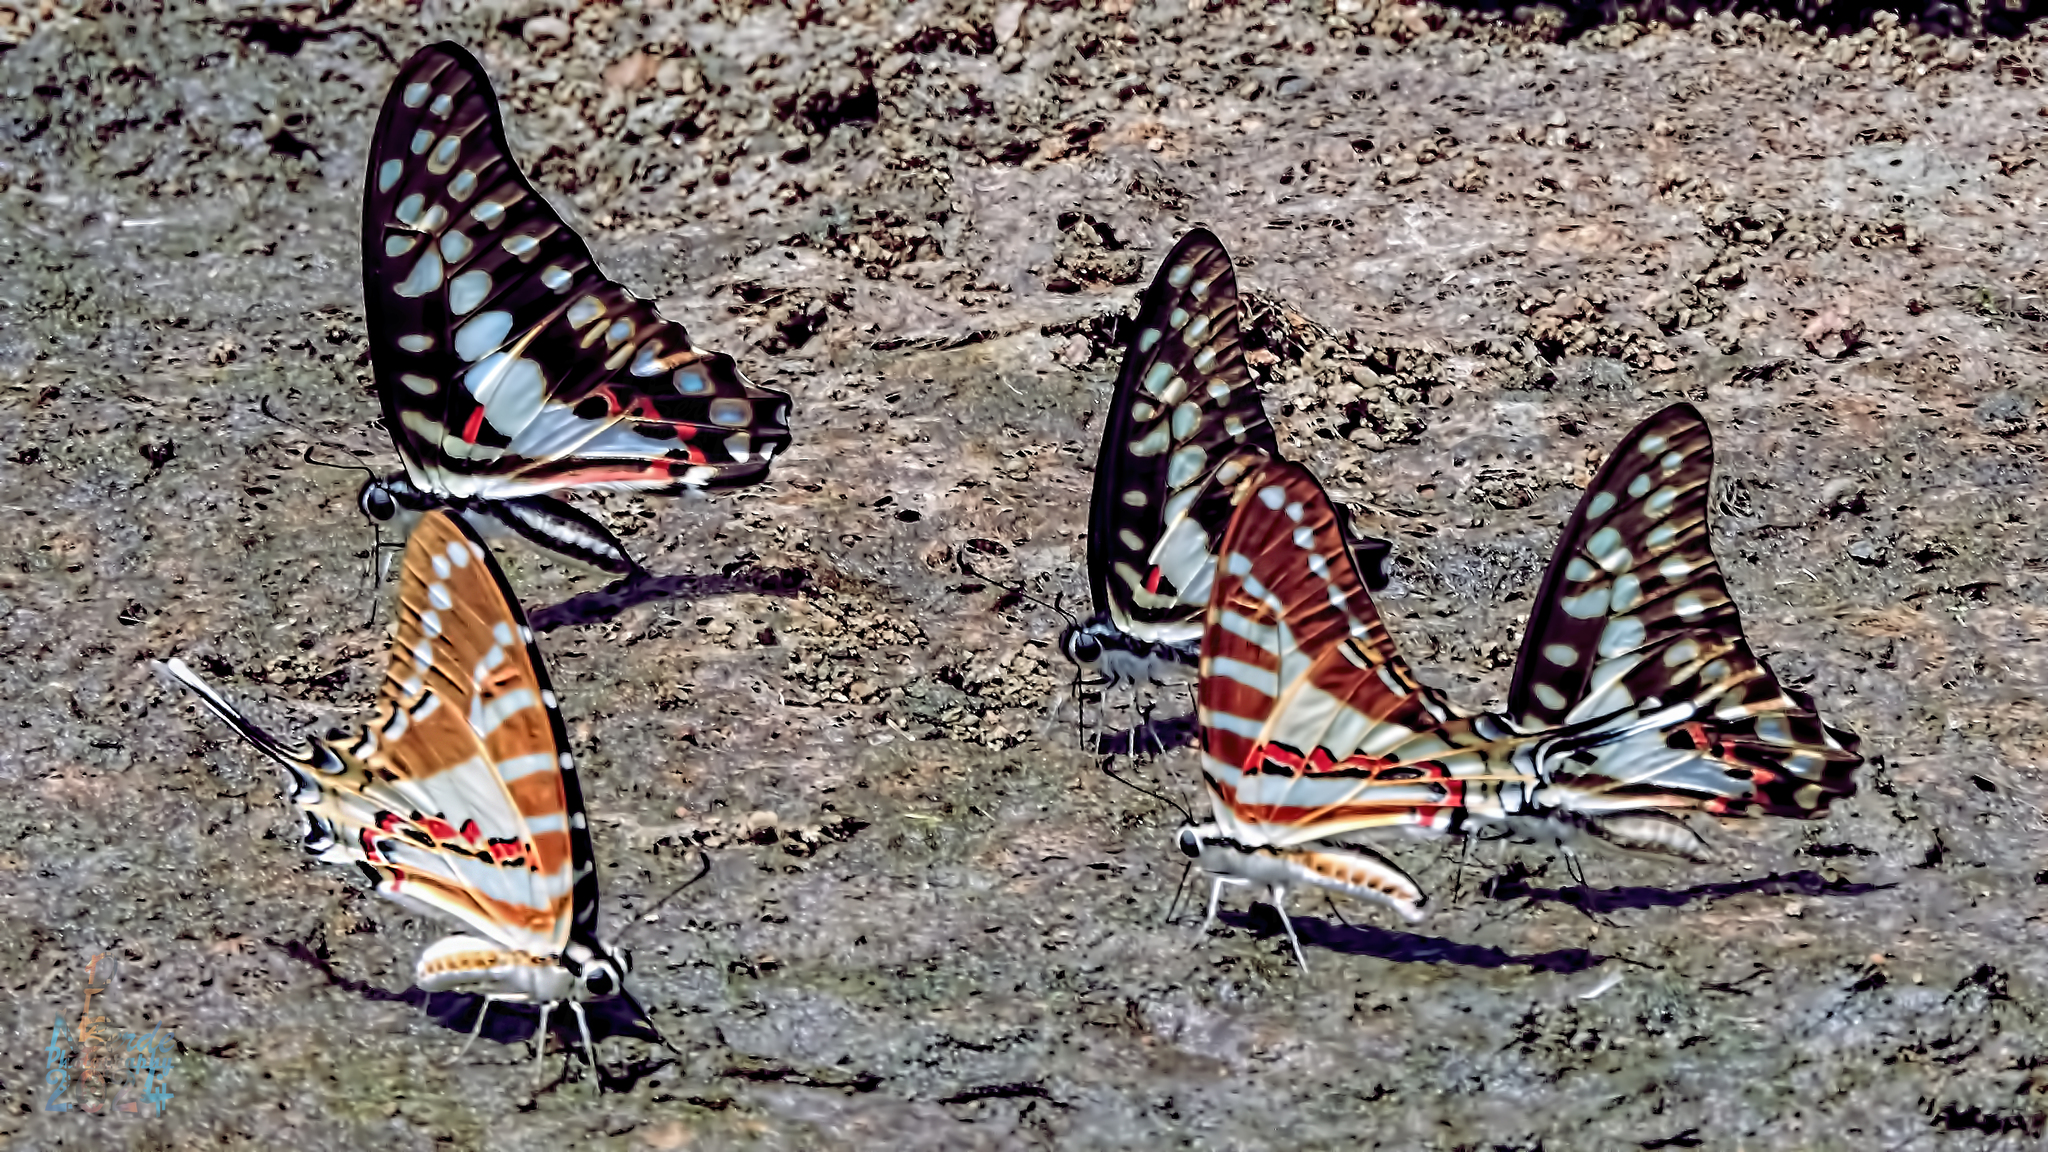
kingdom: Animalia
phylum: Arthropoda
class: Insecta
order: Lepidoptera
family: Papilionidae
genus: Graphium
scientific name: Graphium nomius
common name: Spot swordtail
